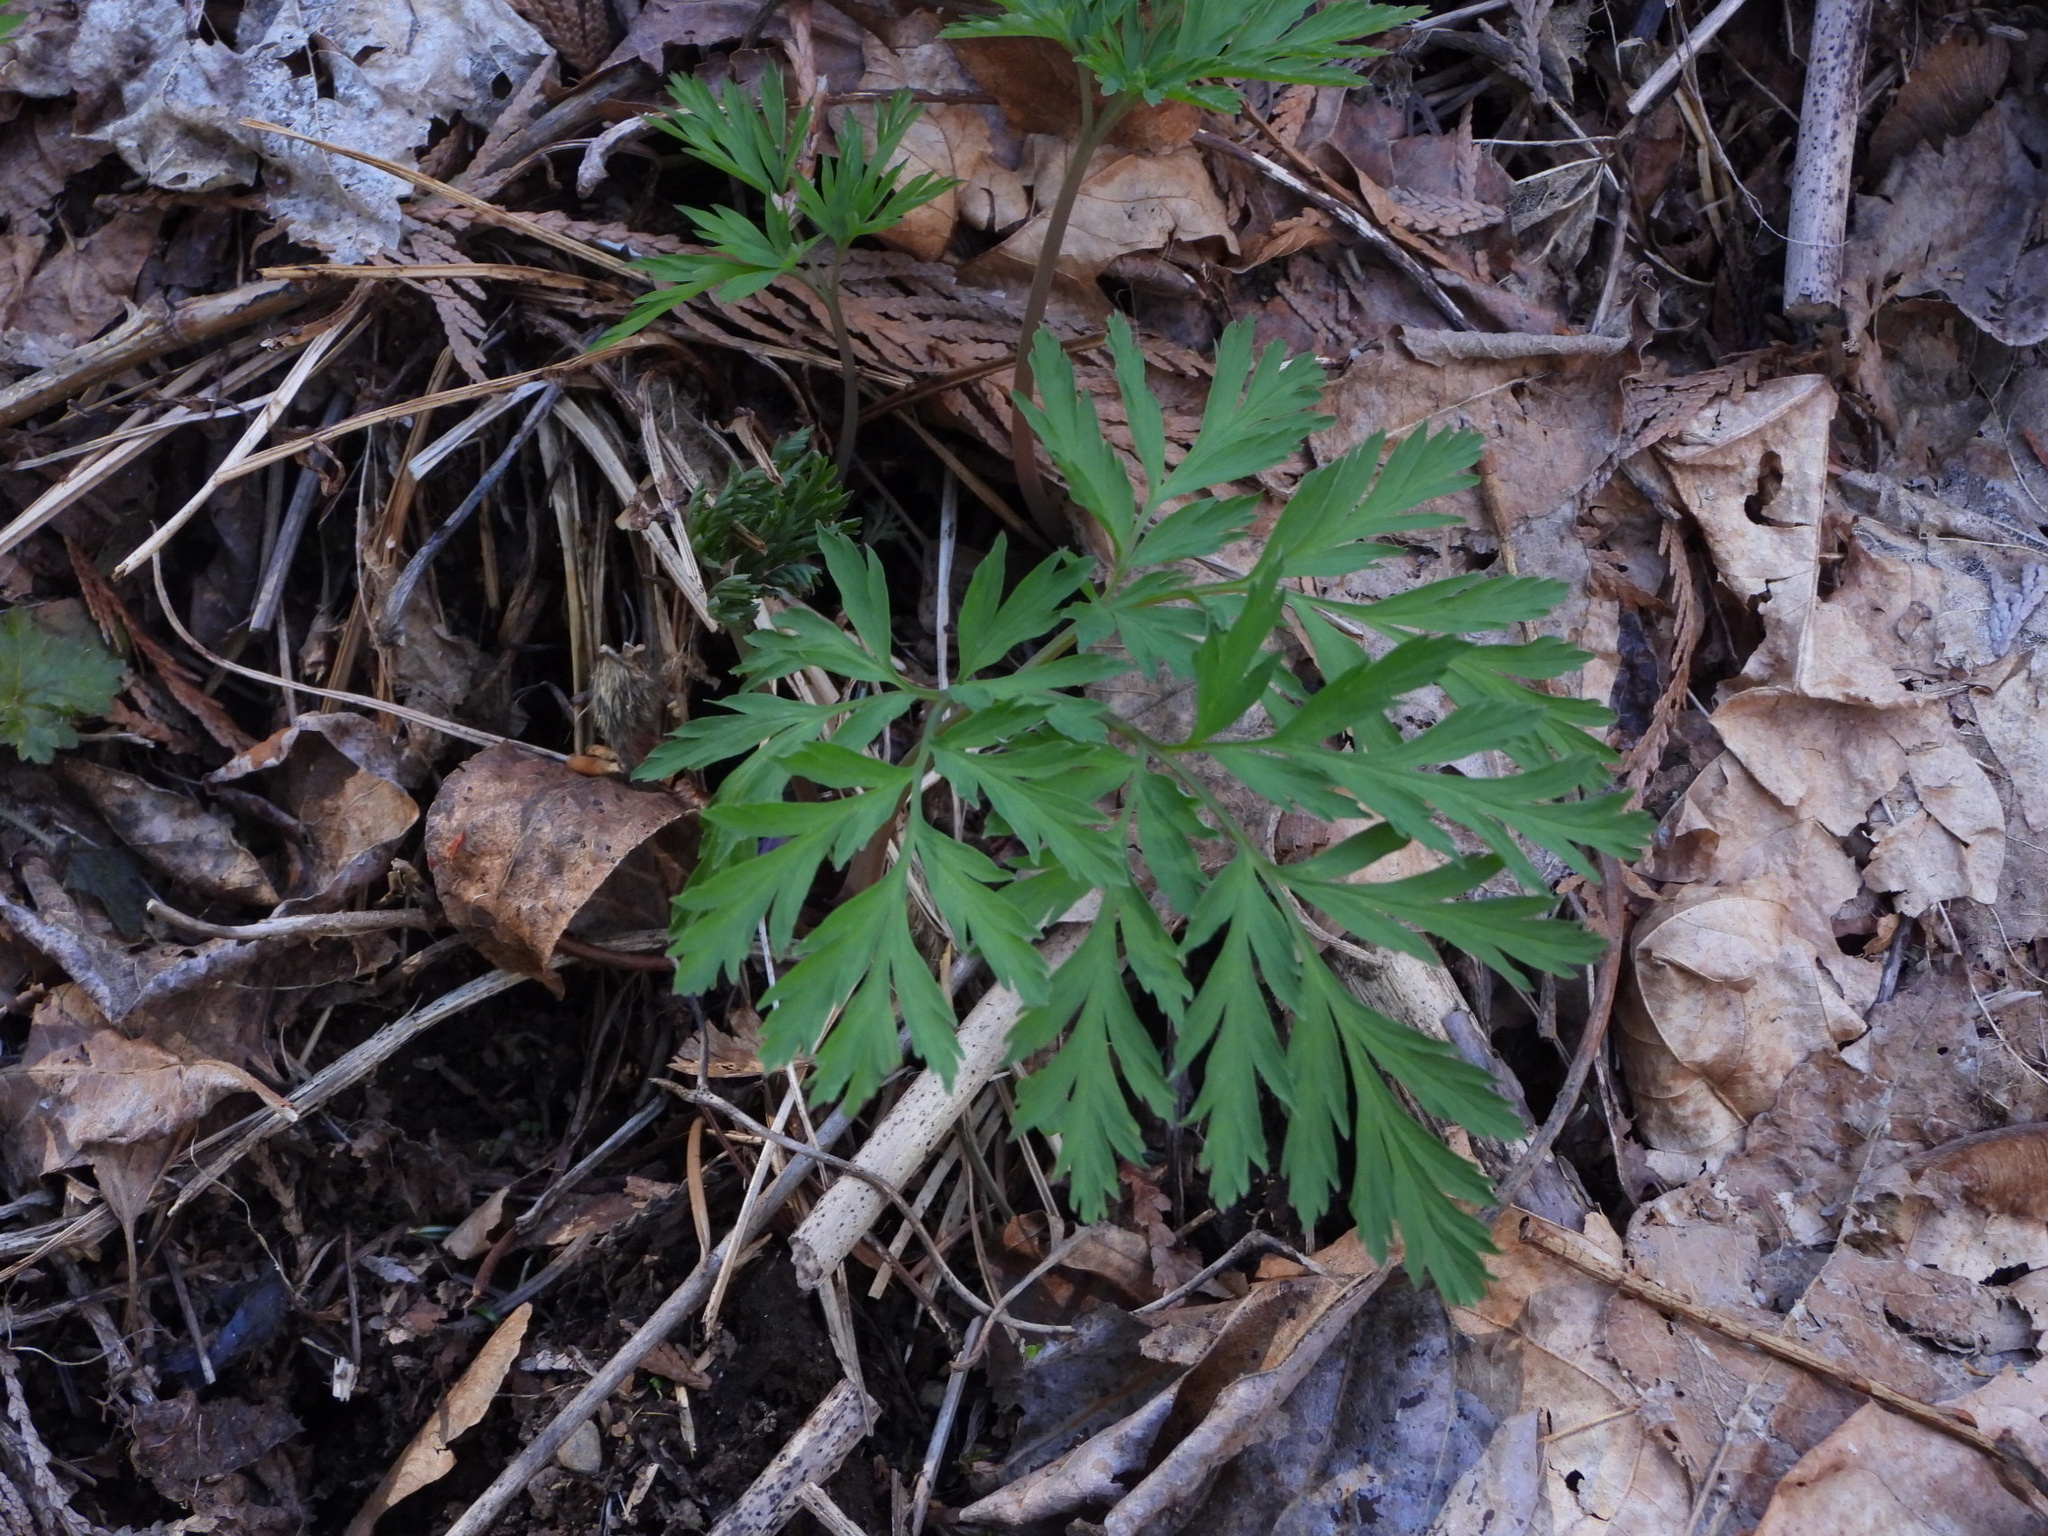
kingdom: Plantae
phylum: Tracheophyta
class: Magnoliopsida
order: Ranunculales
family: Papaveraceae
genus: Dicentra
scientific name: Dicentra formosa
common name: Bleeding-heart
